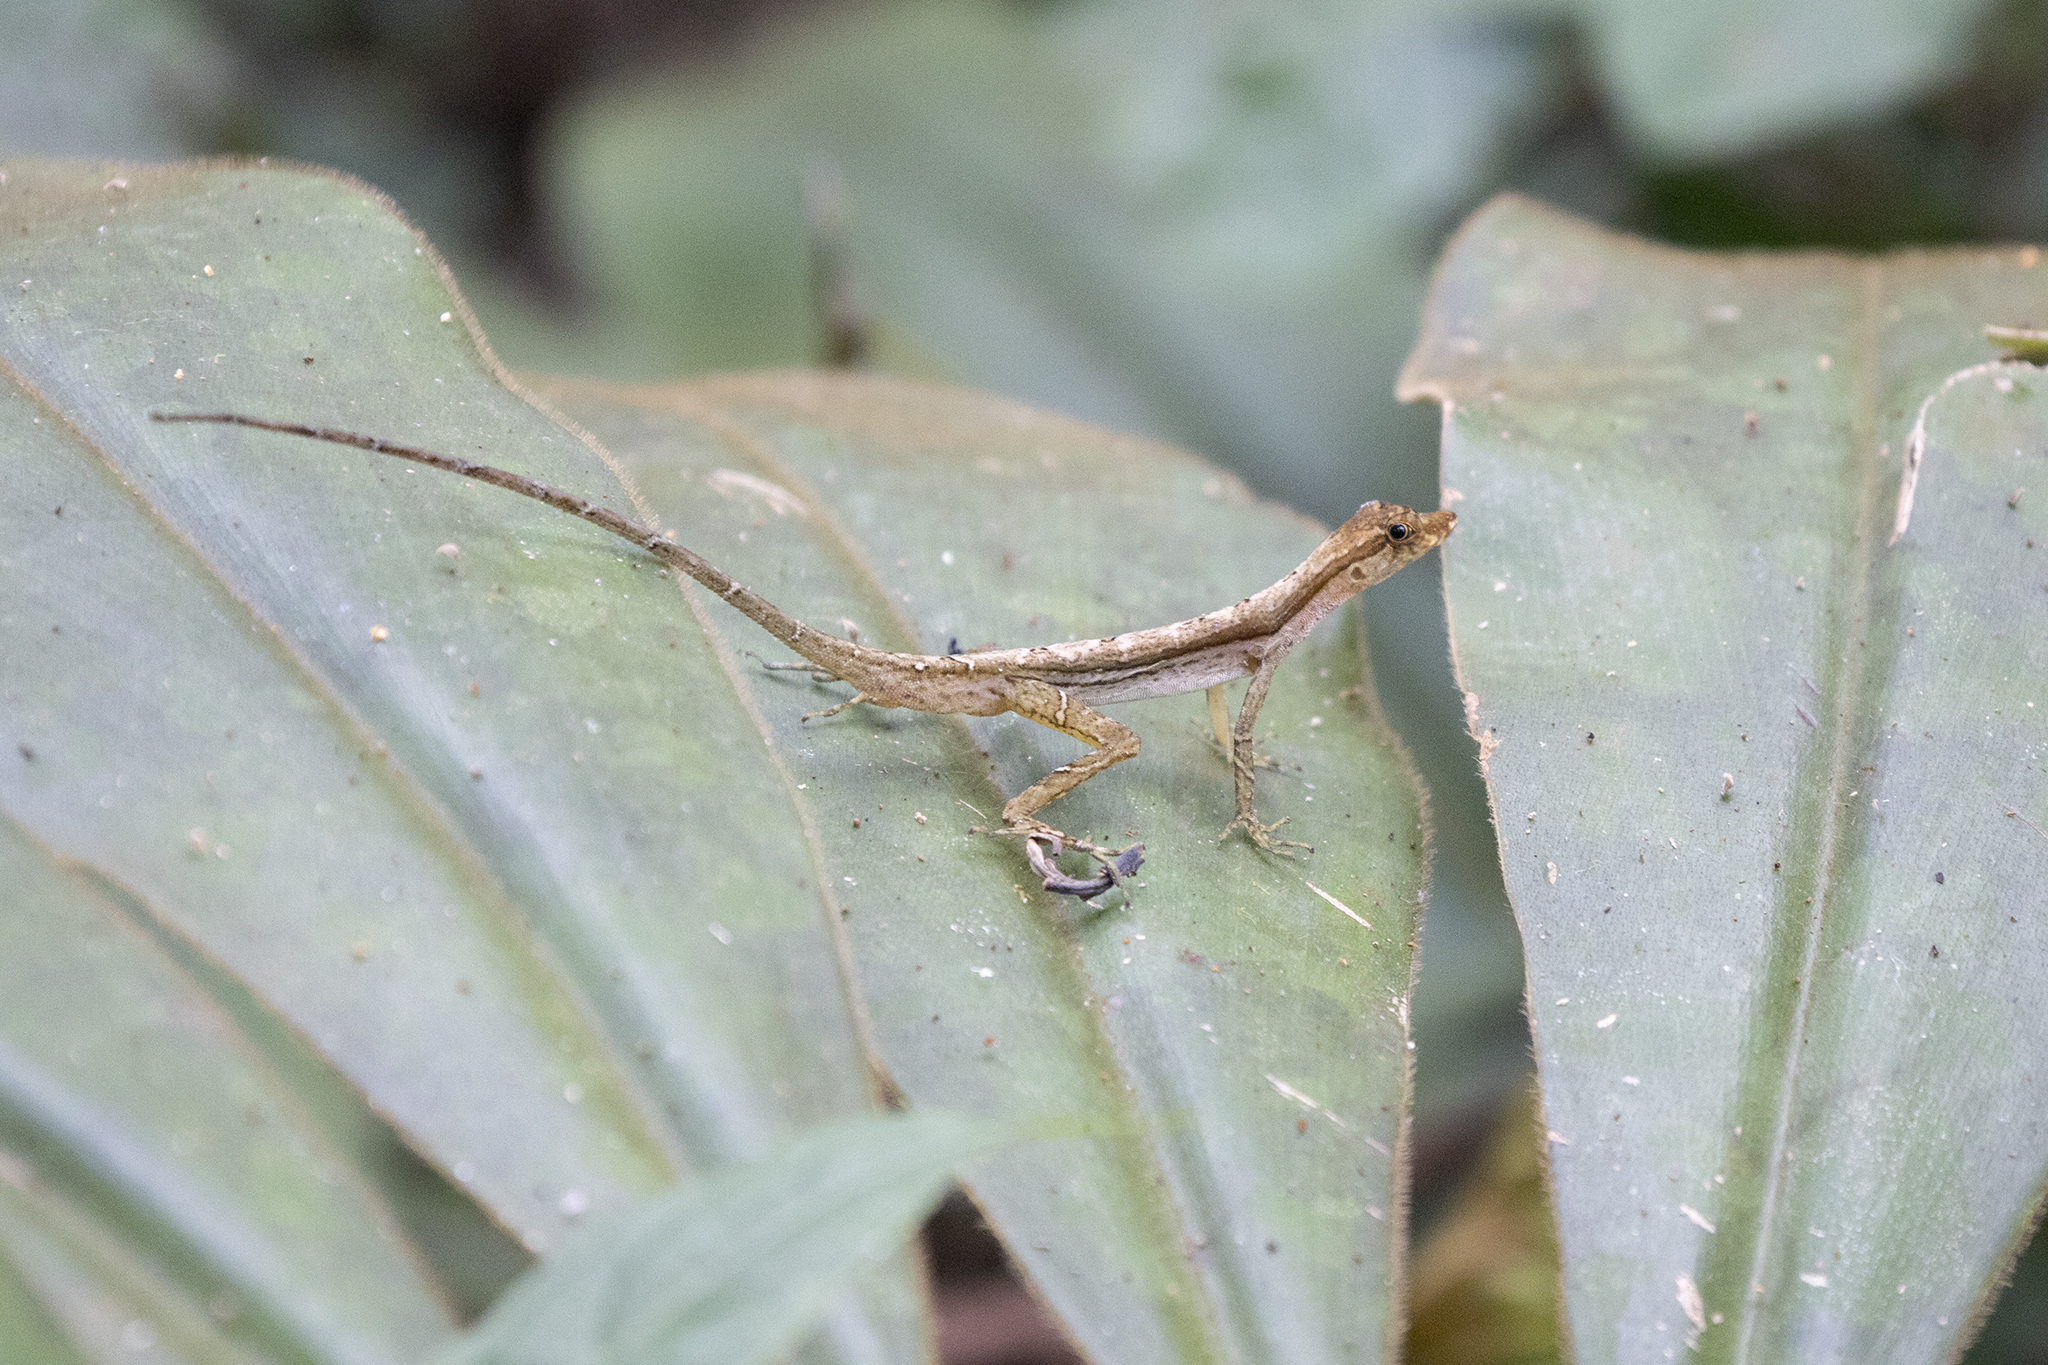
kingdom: Animalia
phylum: Chordata
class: Squamata
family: Dactyloidae
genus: Anolis
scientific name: Anolis trachyderma
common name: Common forest anole
